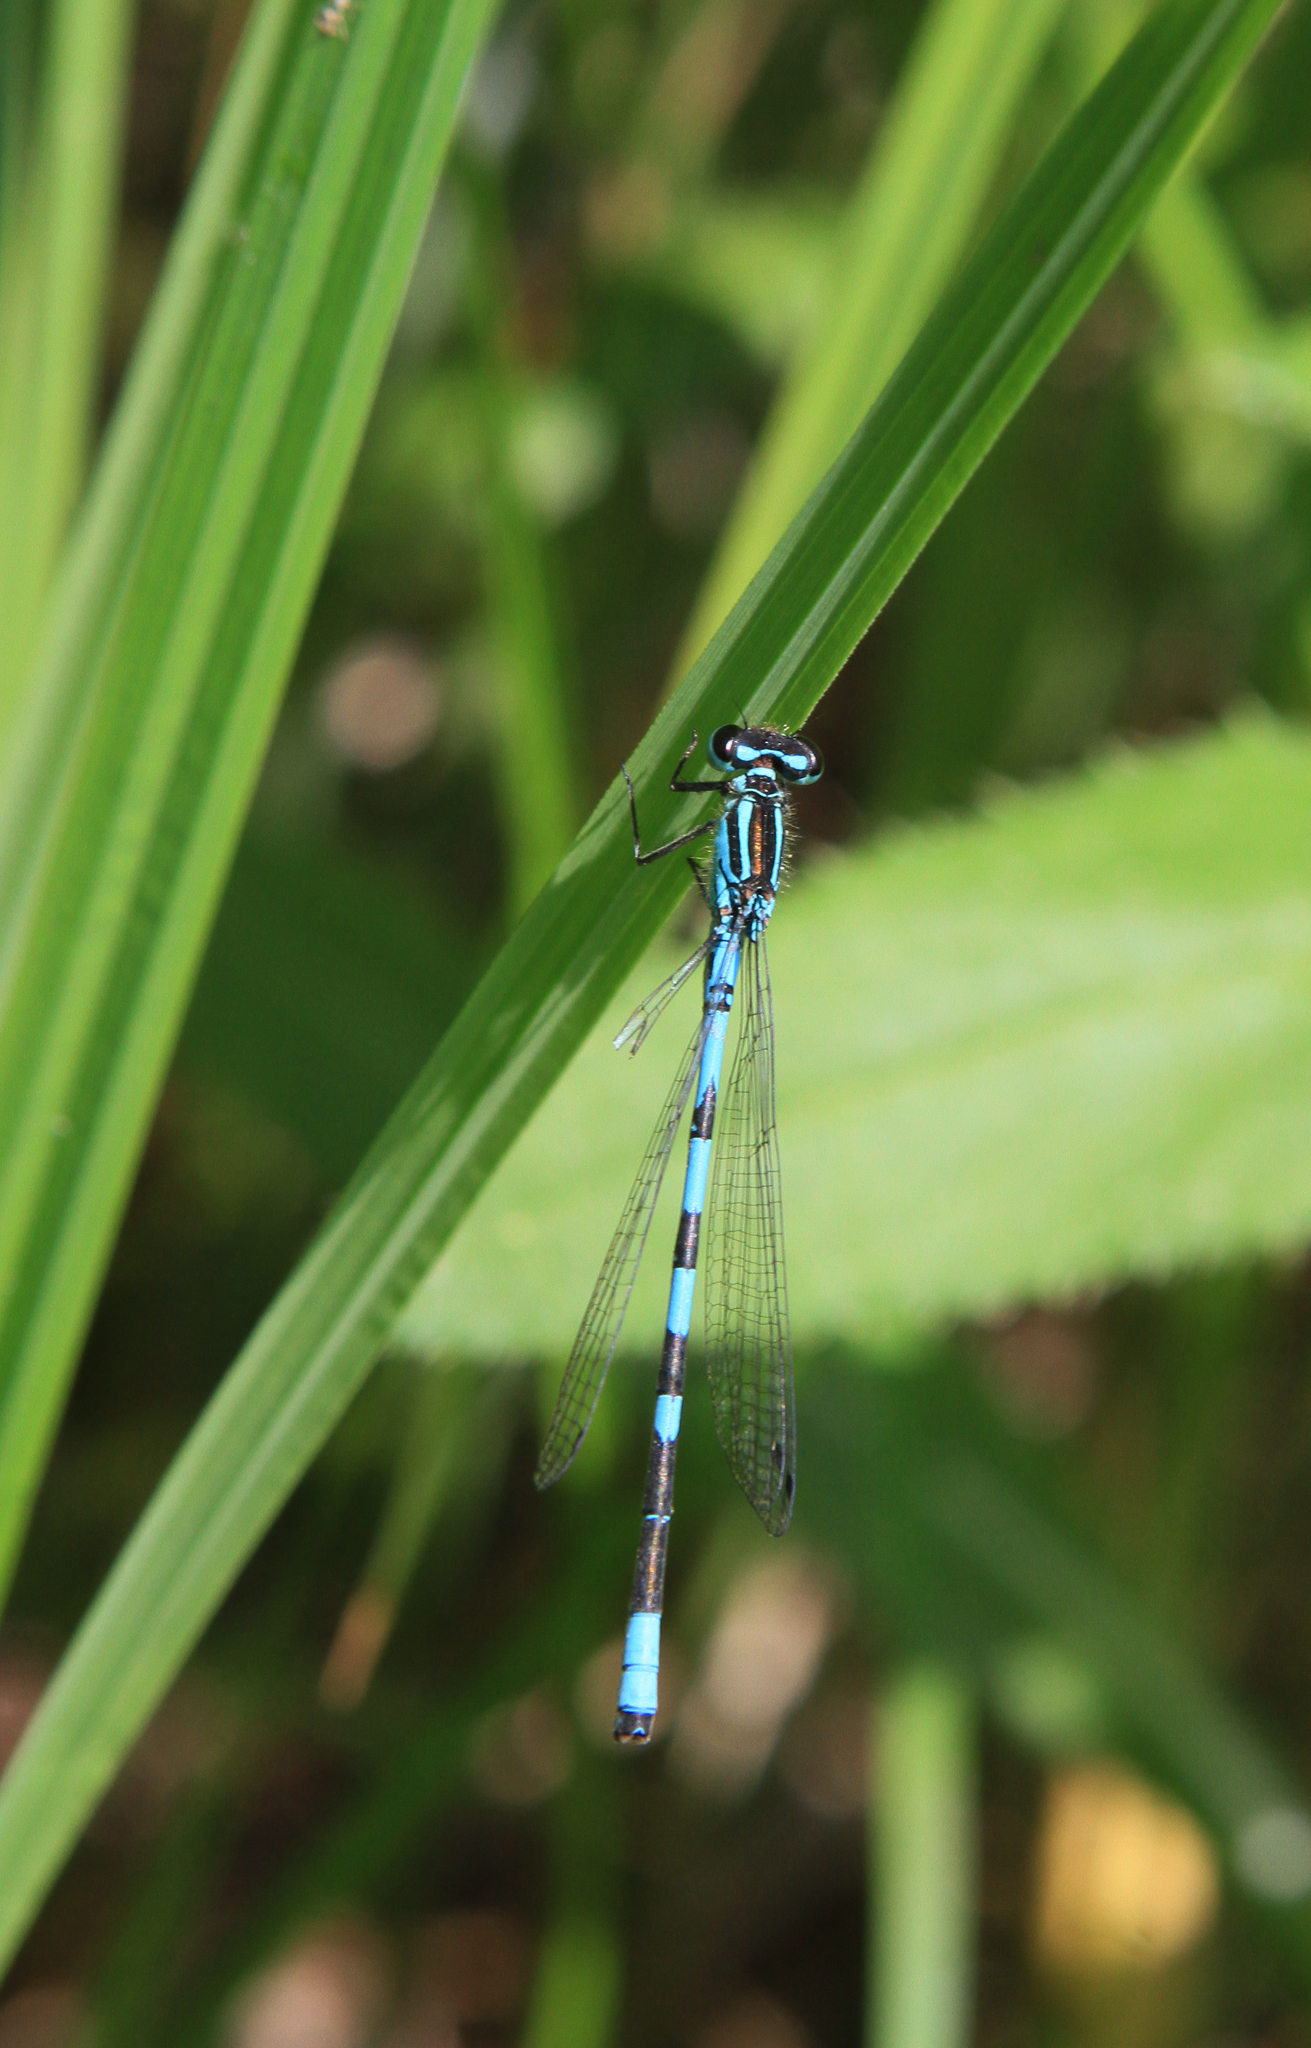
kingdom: Animalia
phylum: Arthropoda
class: Insecta
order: Odonata
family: Coenagrionidae
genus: Coenagrion
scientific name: Coenagrion hastulatum
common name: Spearhead bluet
